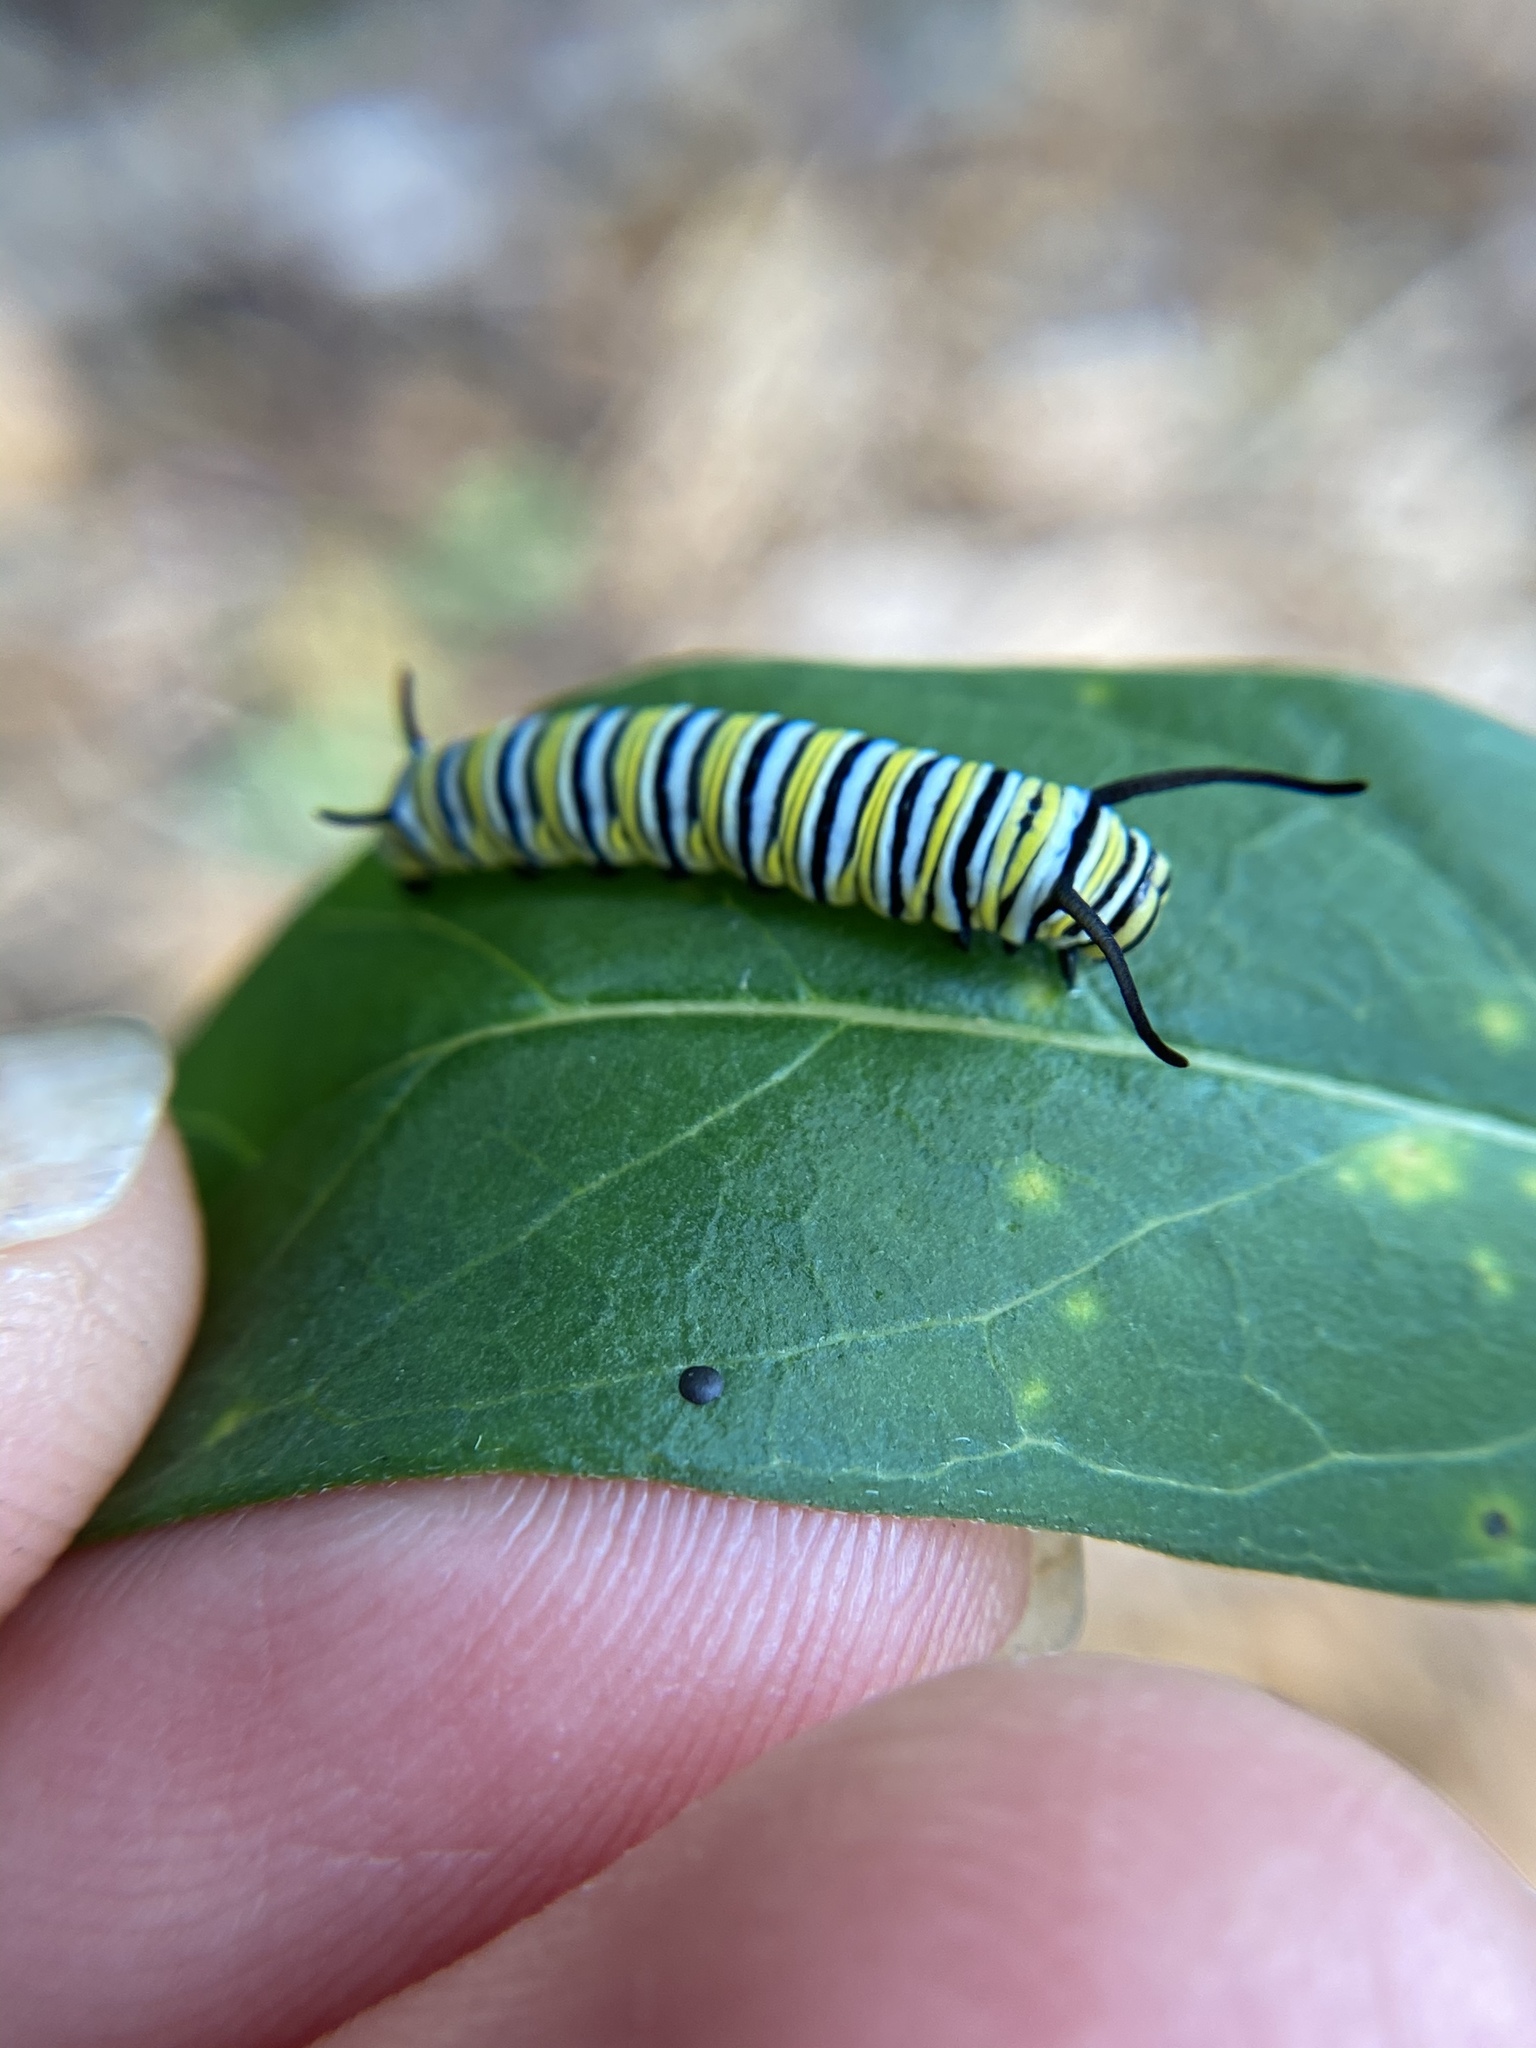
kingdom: Animalia
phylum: Arthropoda
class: Insecta
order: Lepidoptera
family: Nymphalidae
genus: Danaus
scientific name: Danaus plexippus
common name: Monarch
